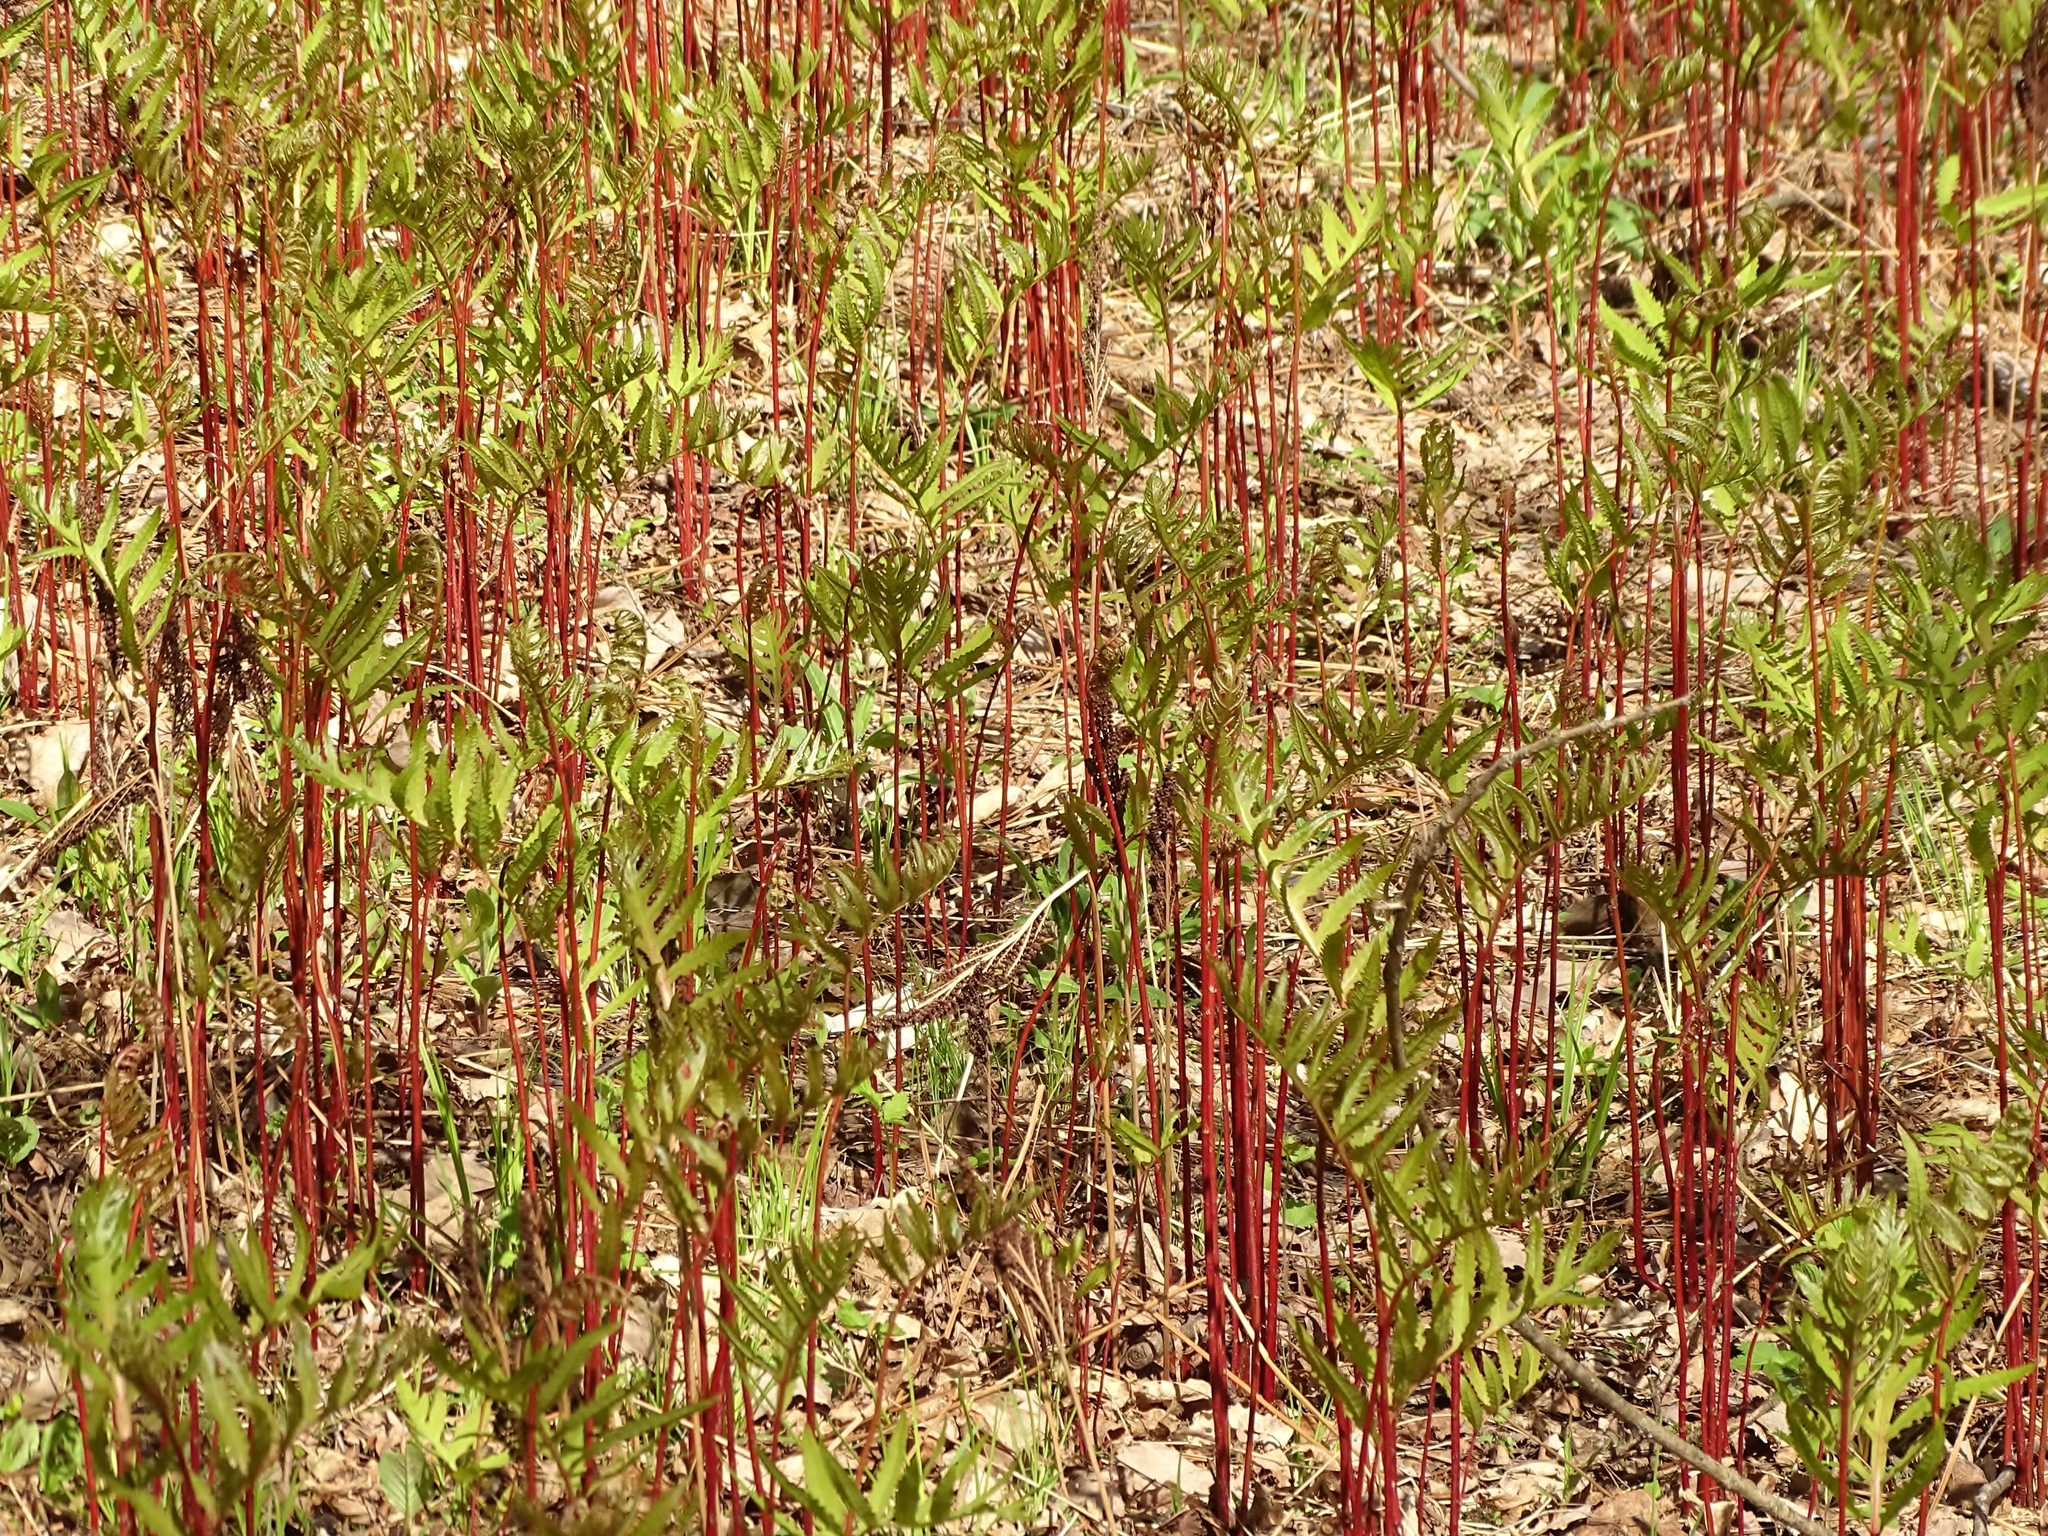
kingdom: Plantae
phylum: Tracheophyta
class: Polypodiopsida
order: Polypodiales
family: Onocleaceae
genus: Onoclea
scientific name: Onoclea sensibilis
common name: Sensitive fern
